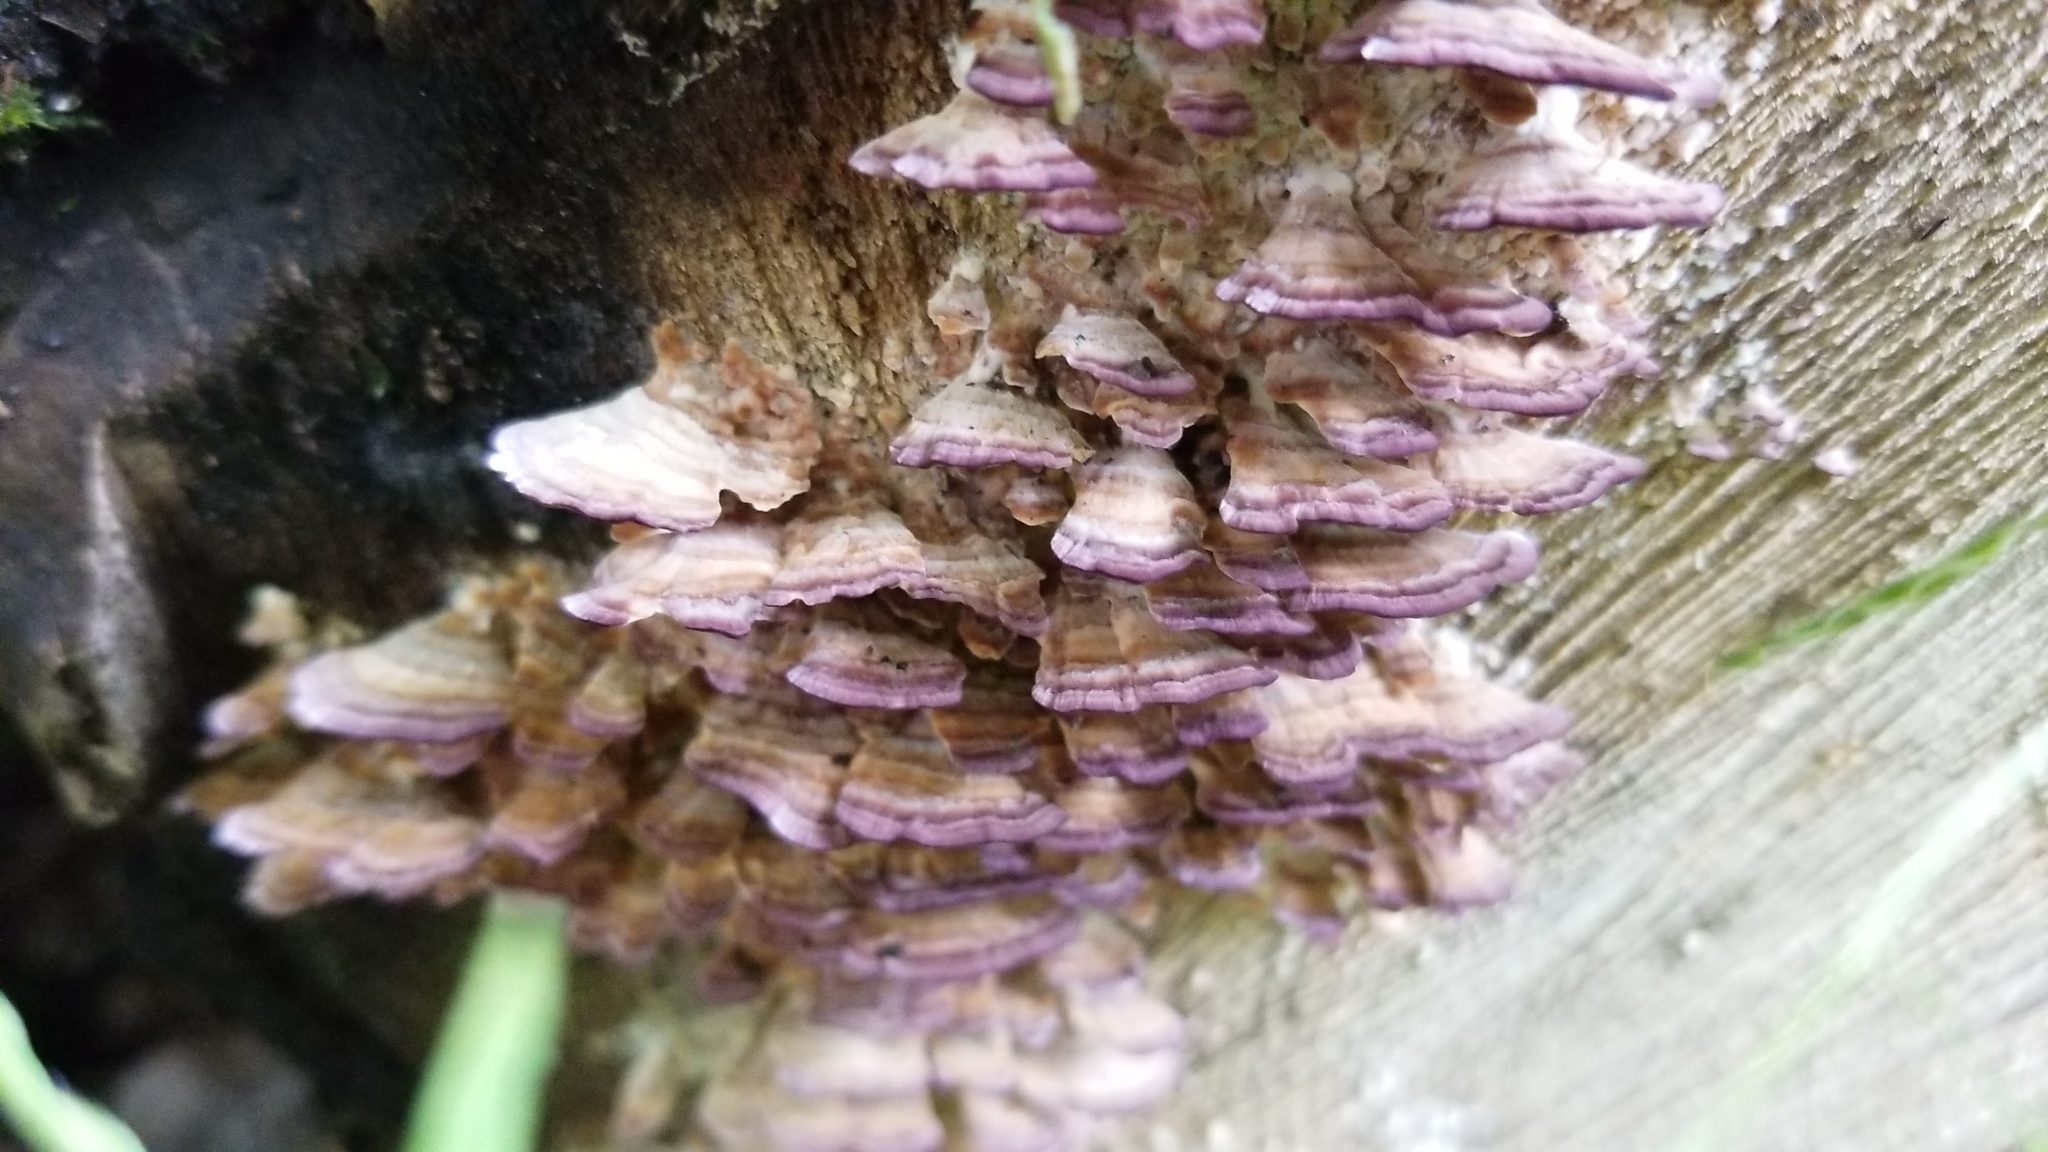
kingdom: Fungi
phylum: Basidiomycota
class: Agaricomycetes
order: Hymenochaetales
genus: Trichaptum
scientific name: Trichaptum abietinum
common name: Purplepore bracket
